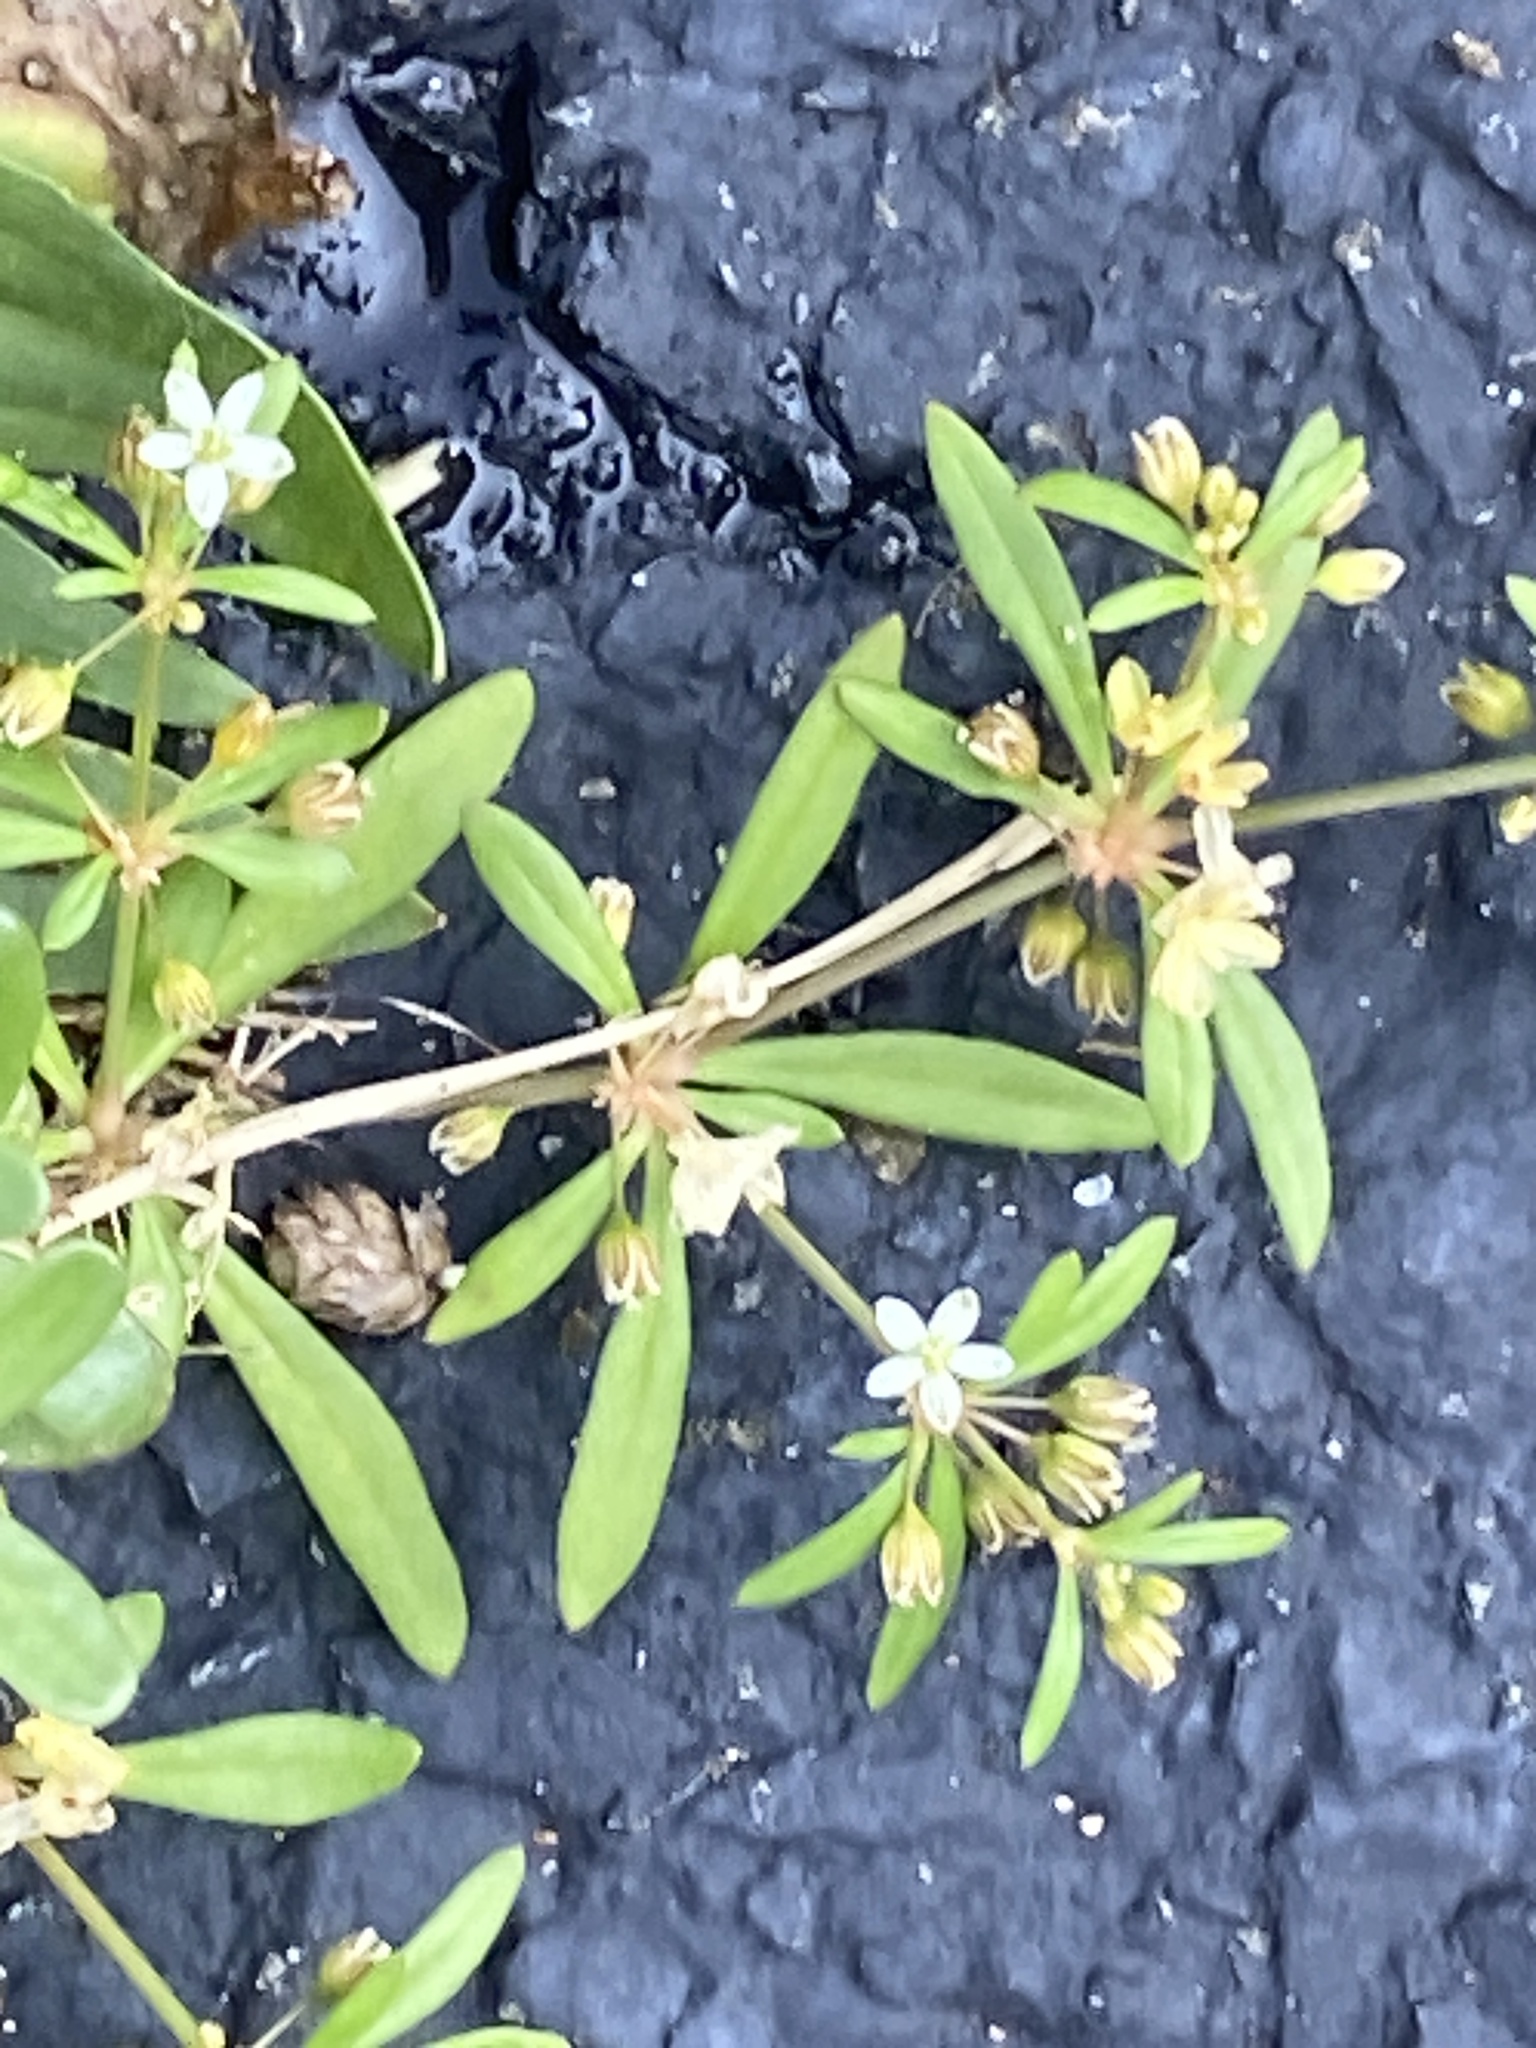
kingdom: Plantae
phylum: Tracheophyta
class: Magnoliopsida
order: Caryophyllales
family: Molluginaceae
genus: Mollugo
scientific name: Mollugo verticillata
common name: Green carpetweed
